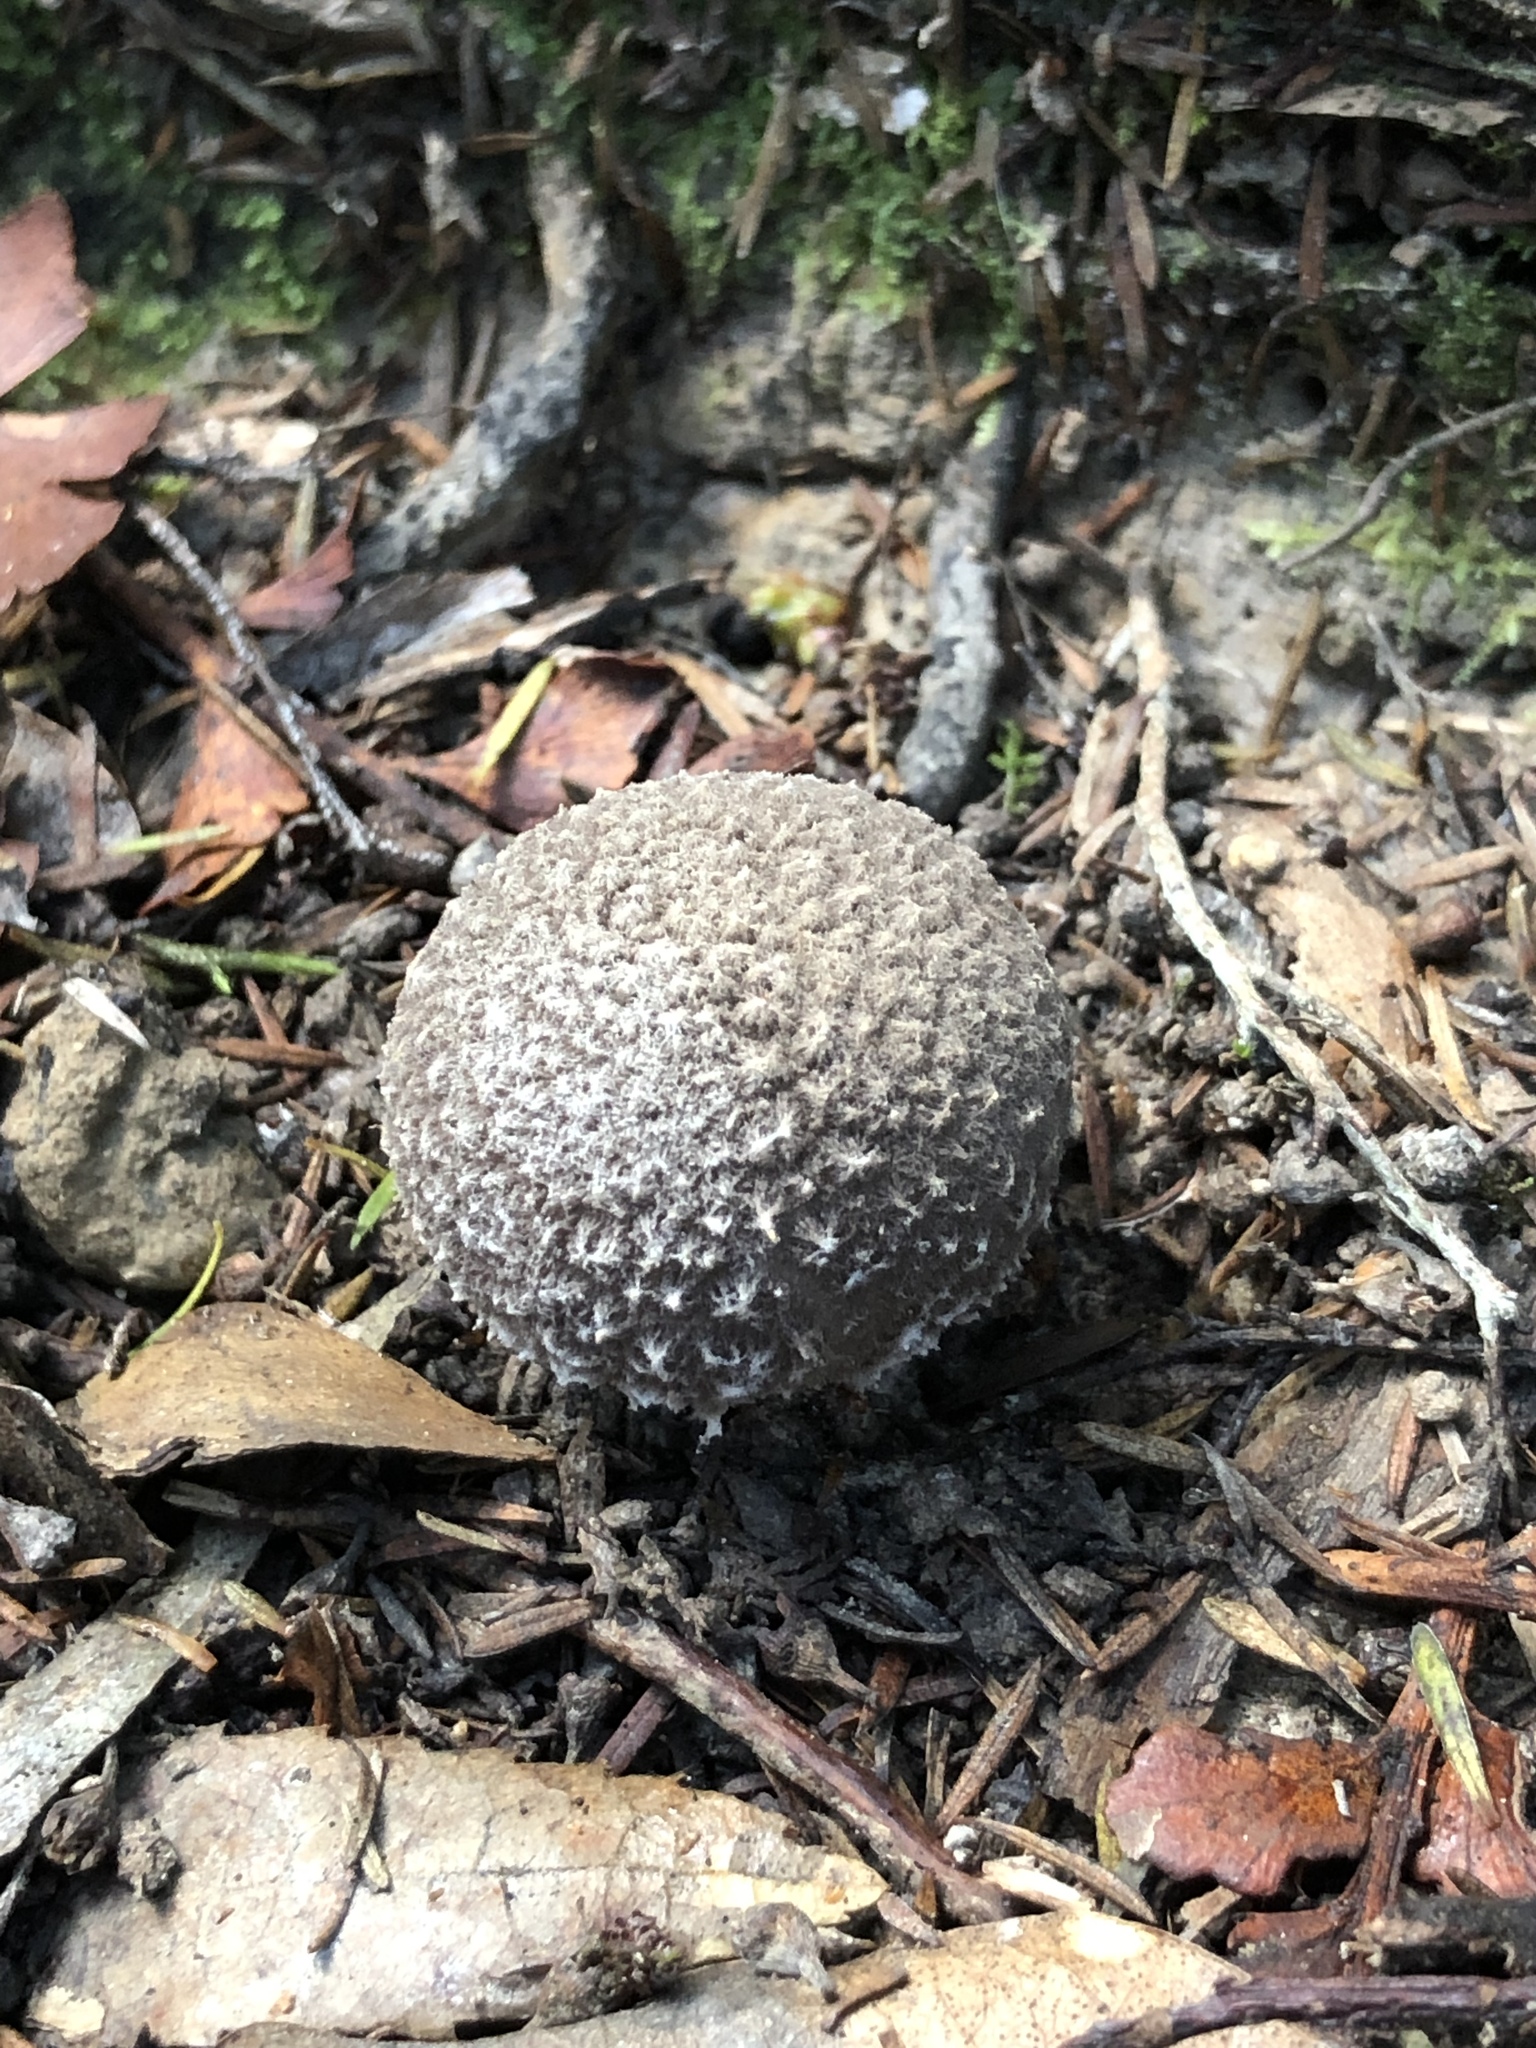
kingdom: Fungi
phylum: Basidiomycota
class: Agaricomycetes
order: Agaricales
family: Amanitaceae
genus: Amanita
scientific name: Amanita nehuta
